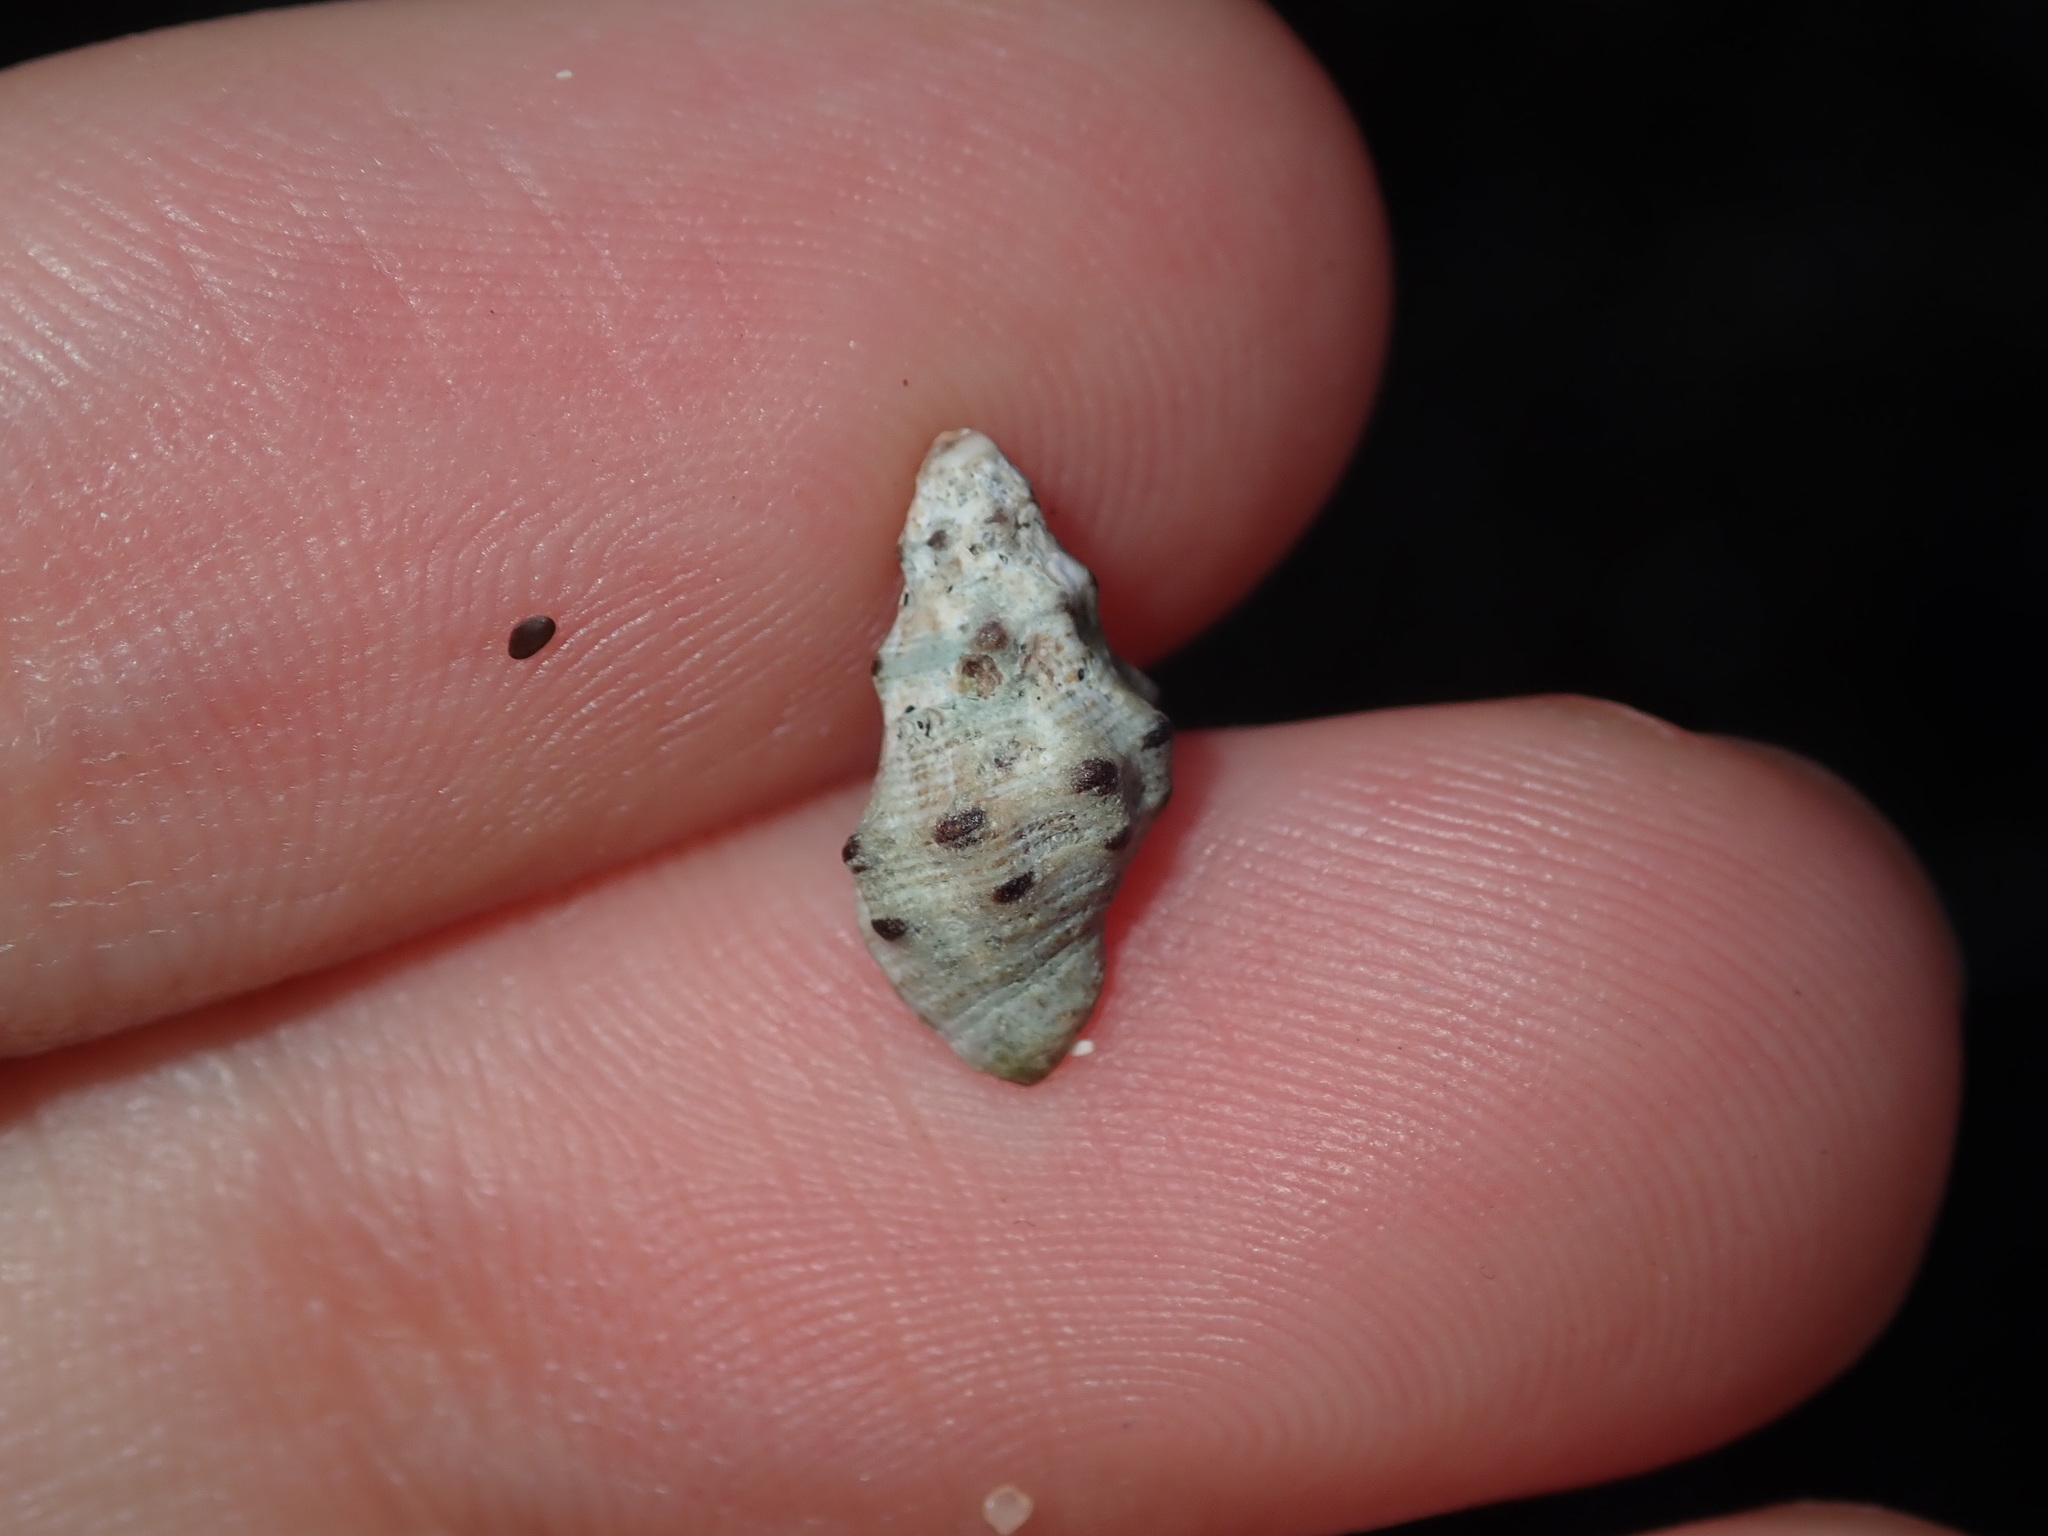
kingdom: Animalia
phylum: Mollusca
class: Gastropoda
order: Neogastropoda
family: Muricidae
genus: Phycothais
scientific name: Phycothais reticulata
